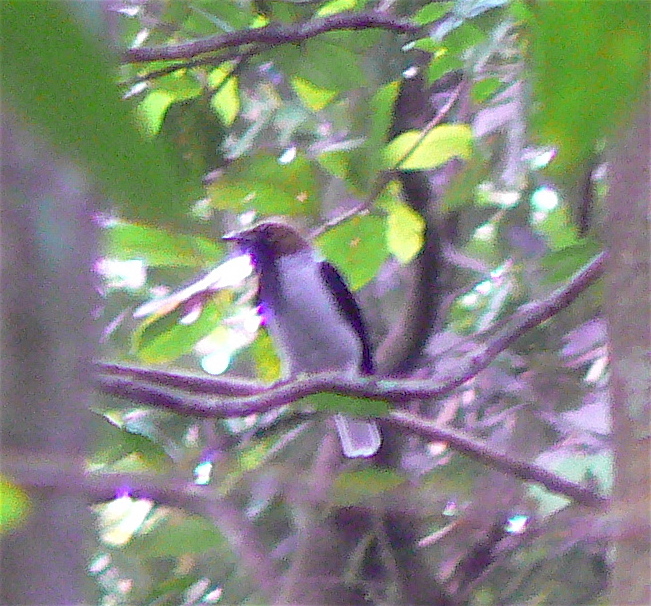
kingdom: Animalia
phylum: Chordata
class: Aves
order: Passeriformes
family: Cotingidae
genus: Procnias
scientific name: Procnias averano
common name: Bearded bellbird
